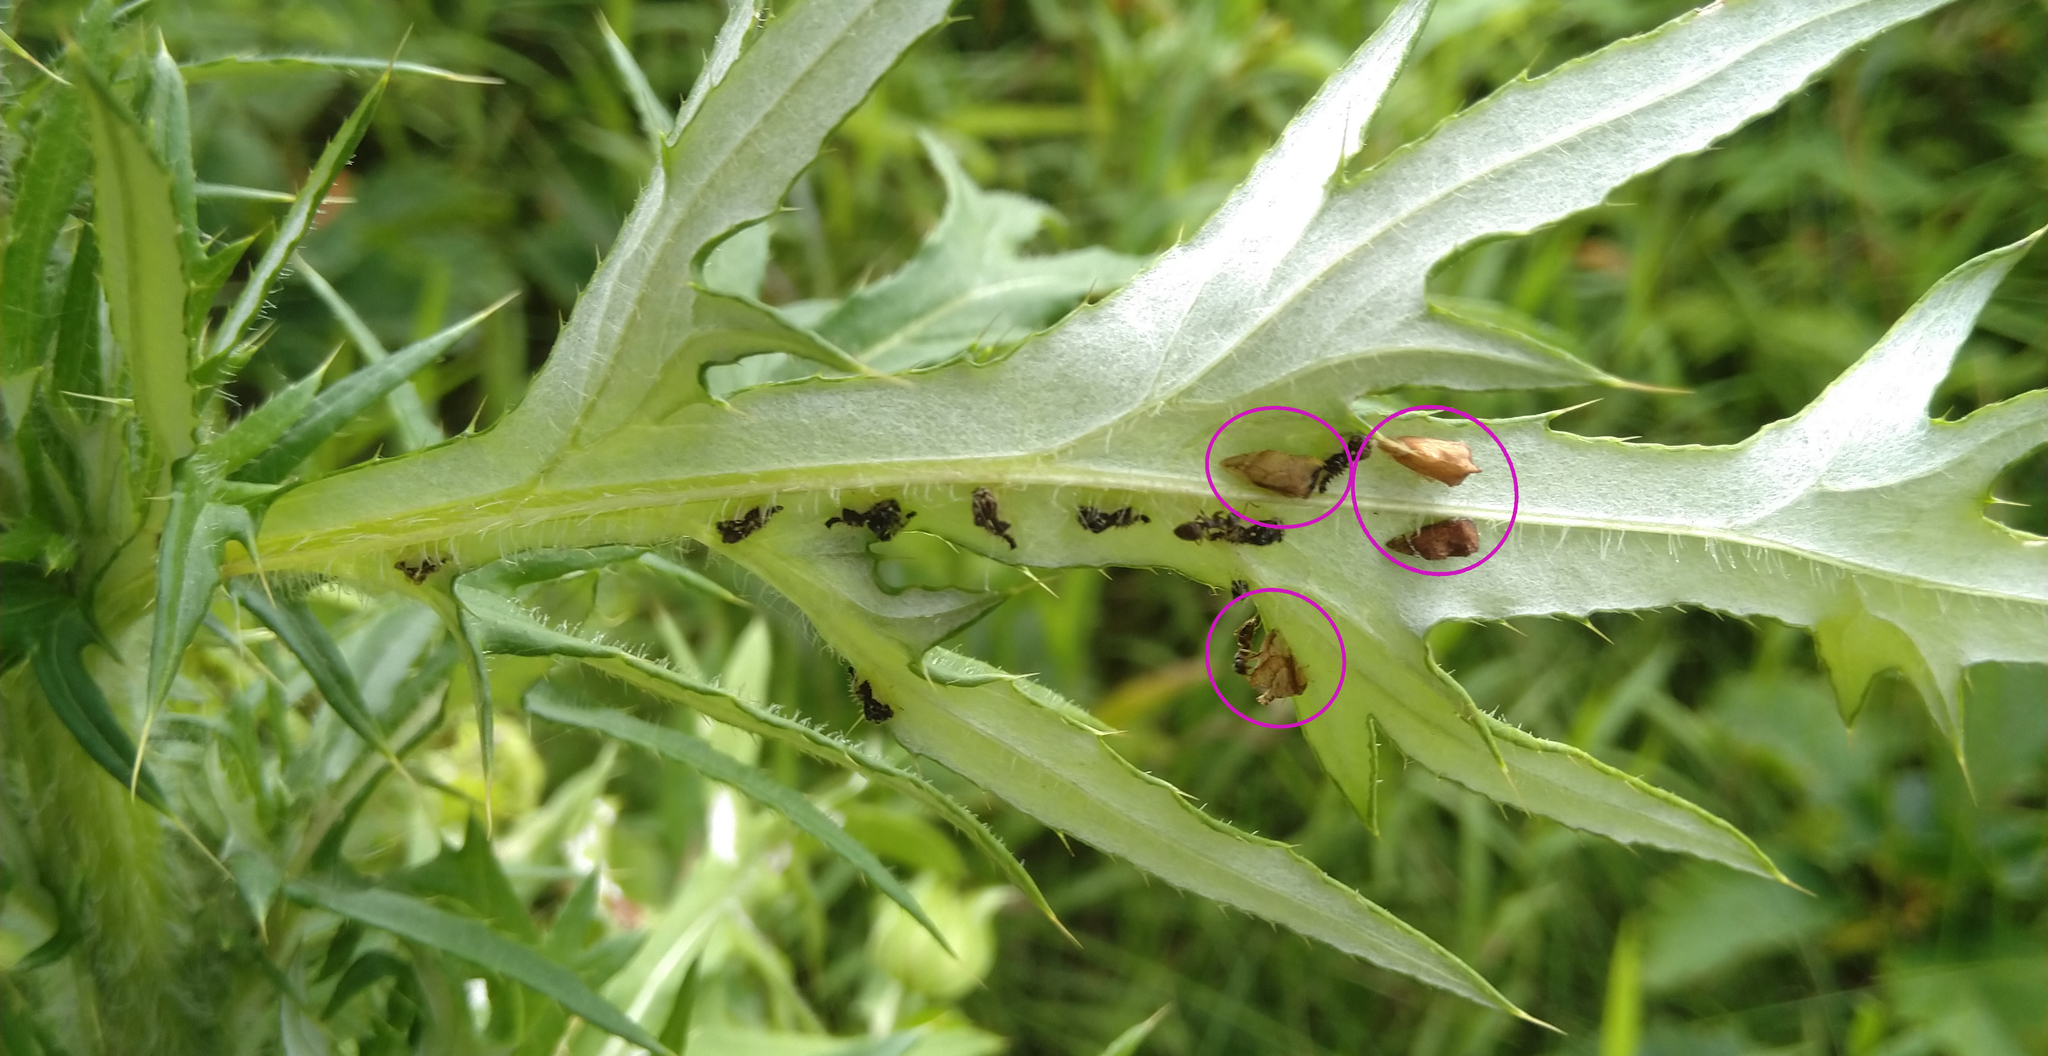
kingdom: Animalia
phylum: Arthropoda
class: Insecta
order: Hemiptera
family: Membracidae
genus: Entylia
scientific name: Entylia carinata
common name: Keeled treehopper
